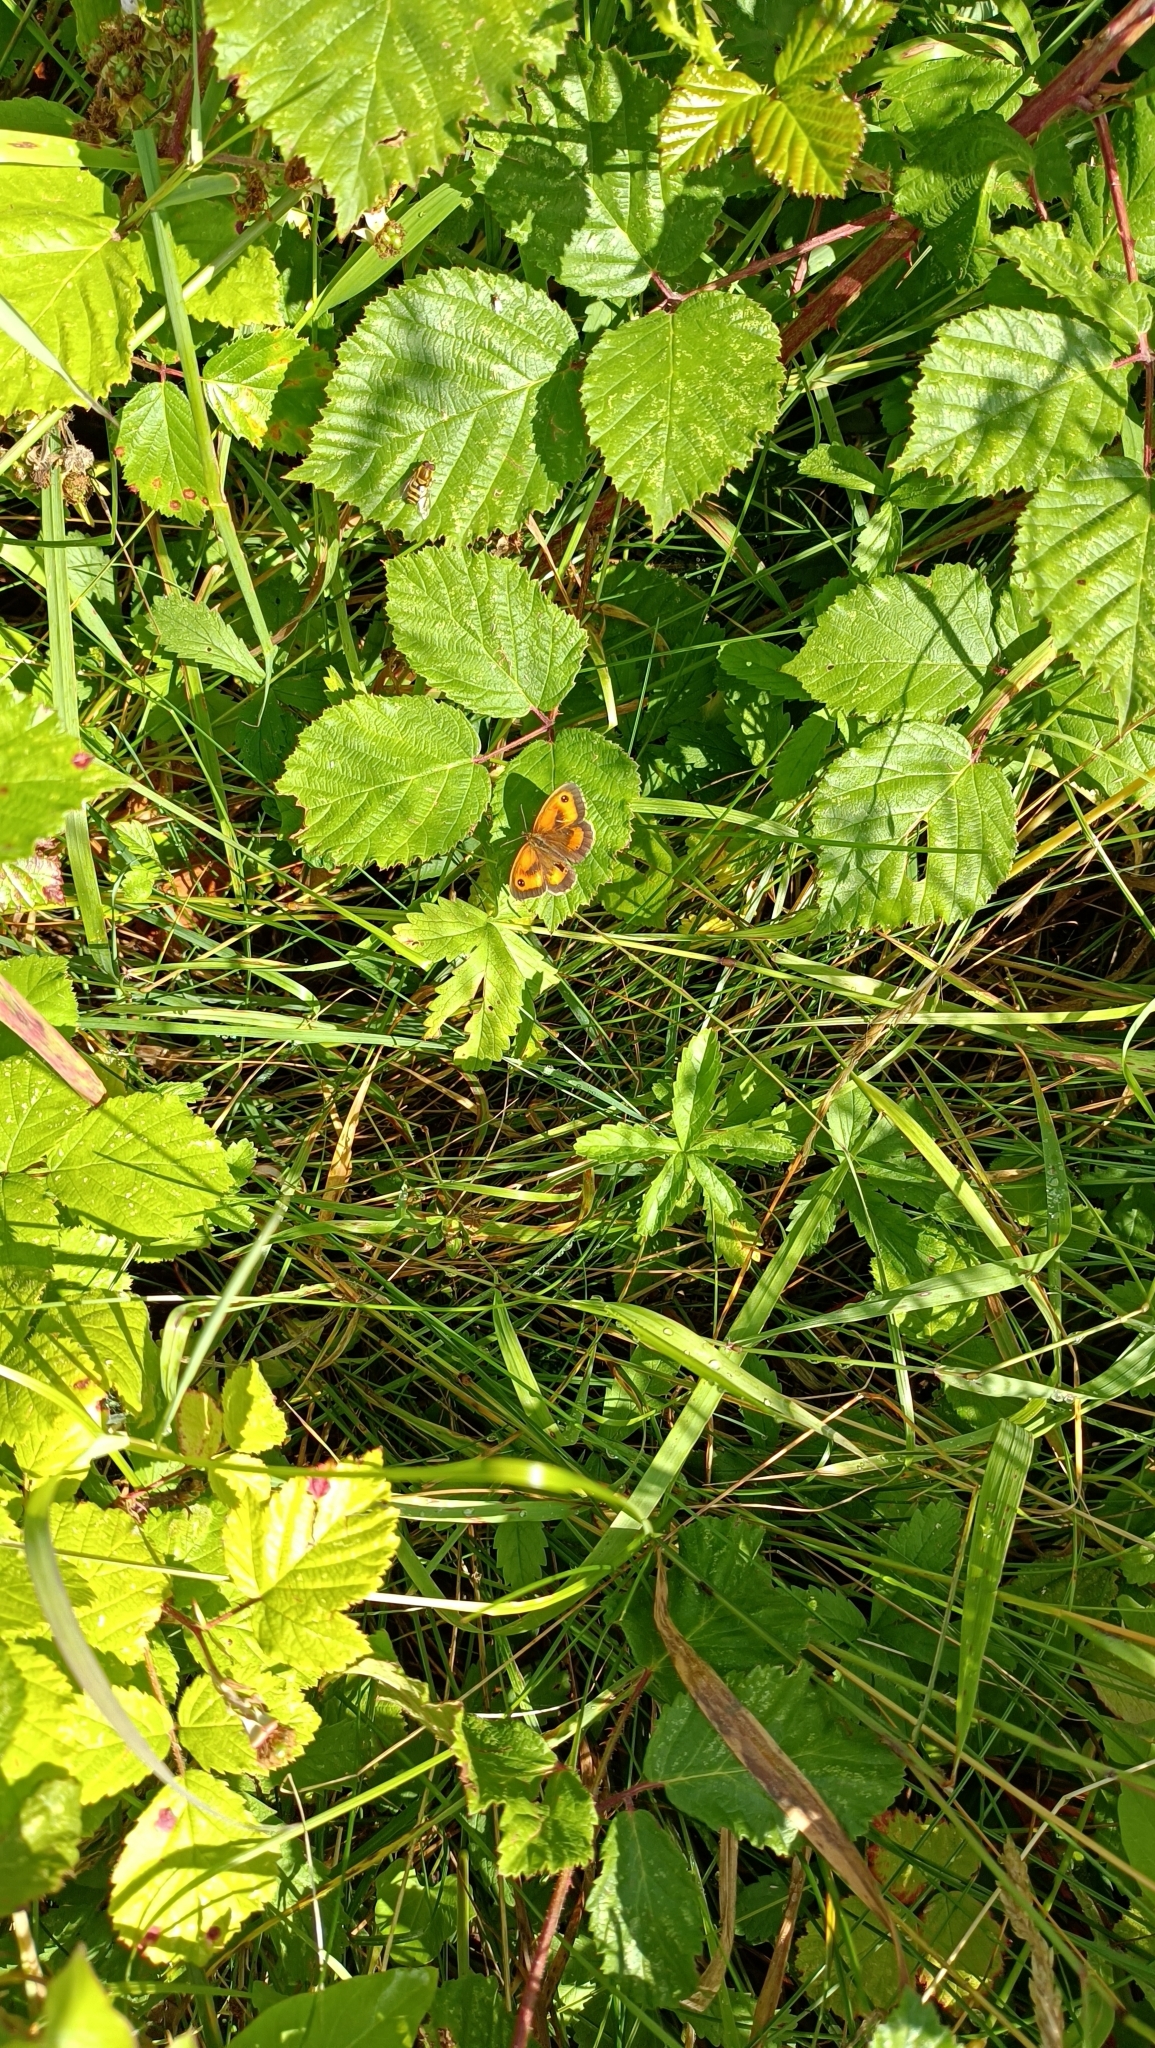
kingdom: Animalia
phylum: Arthropoda
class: Insecta
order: Lepidoptera
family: Nymphalidae
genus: Pyronia
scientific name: Pyronia tithonus
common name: Gatekeeper
